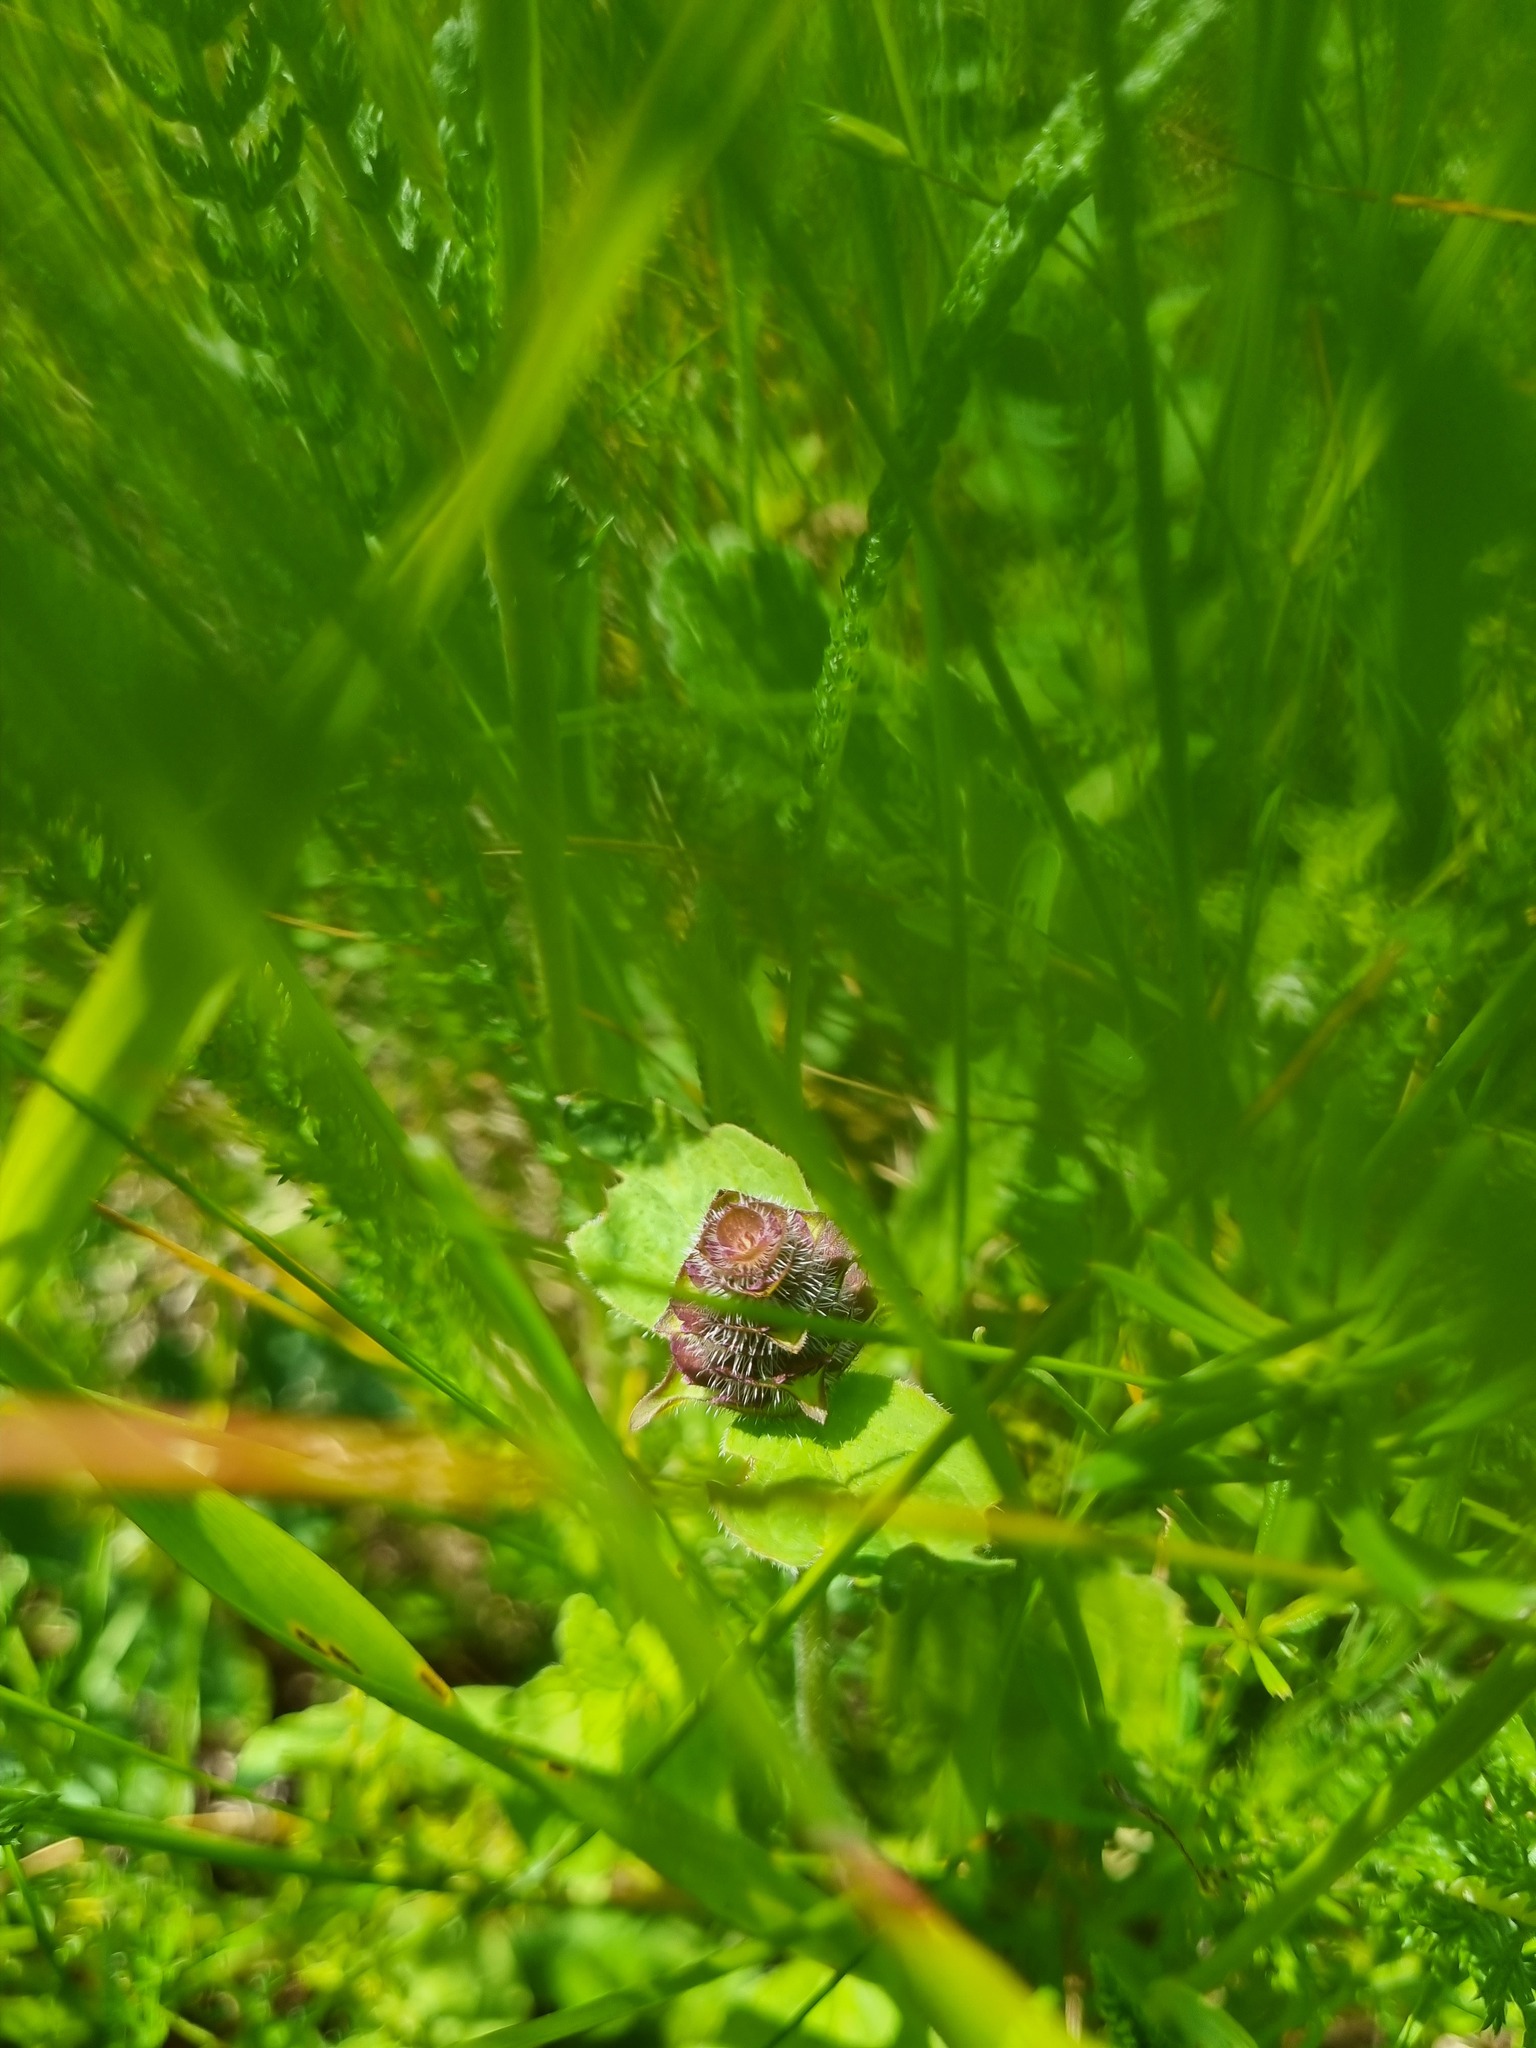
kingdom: Plantae
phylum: Tracheophyta
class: Magnoliopsida
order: Lamiales
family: Lamiaceae
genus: Prunella
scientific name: Prunella vulgaris
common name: Heal-all
